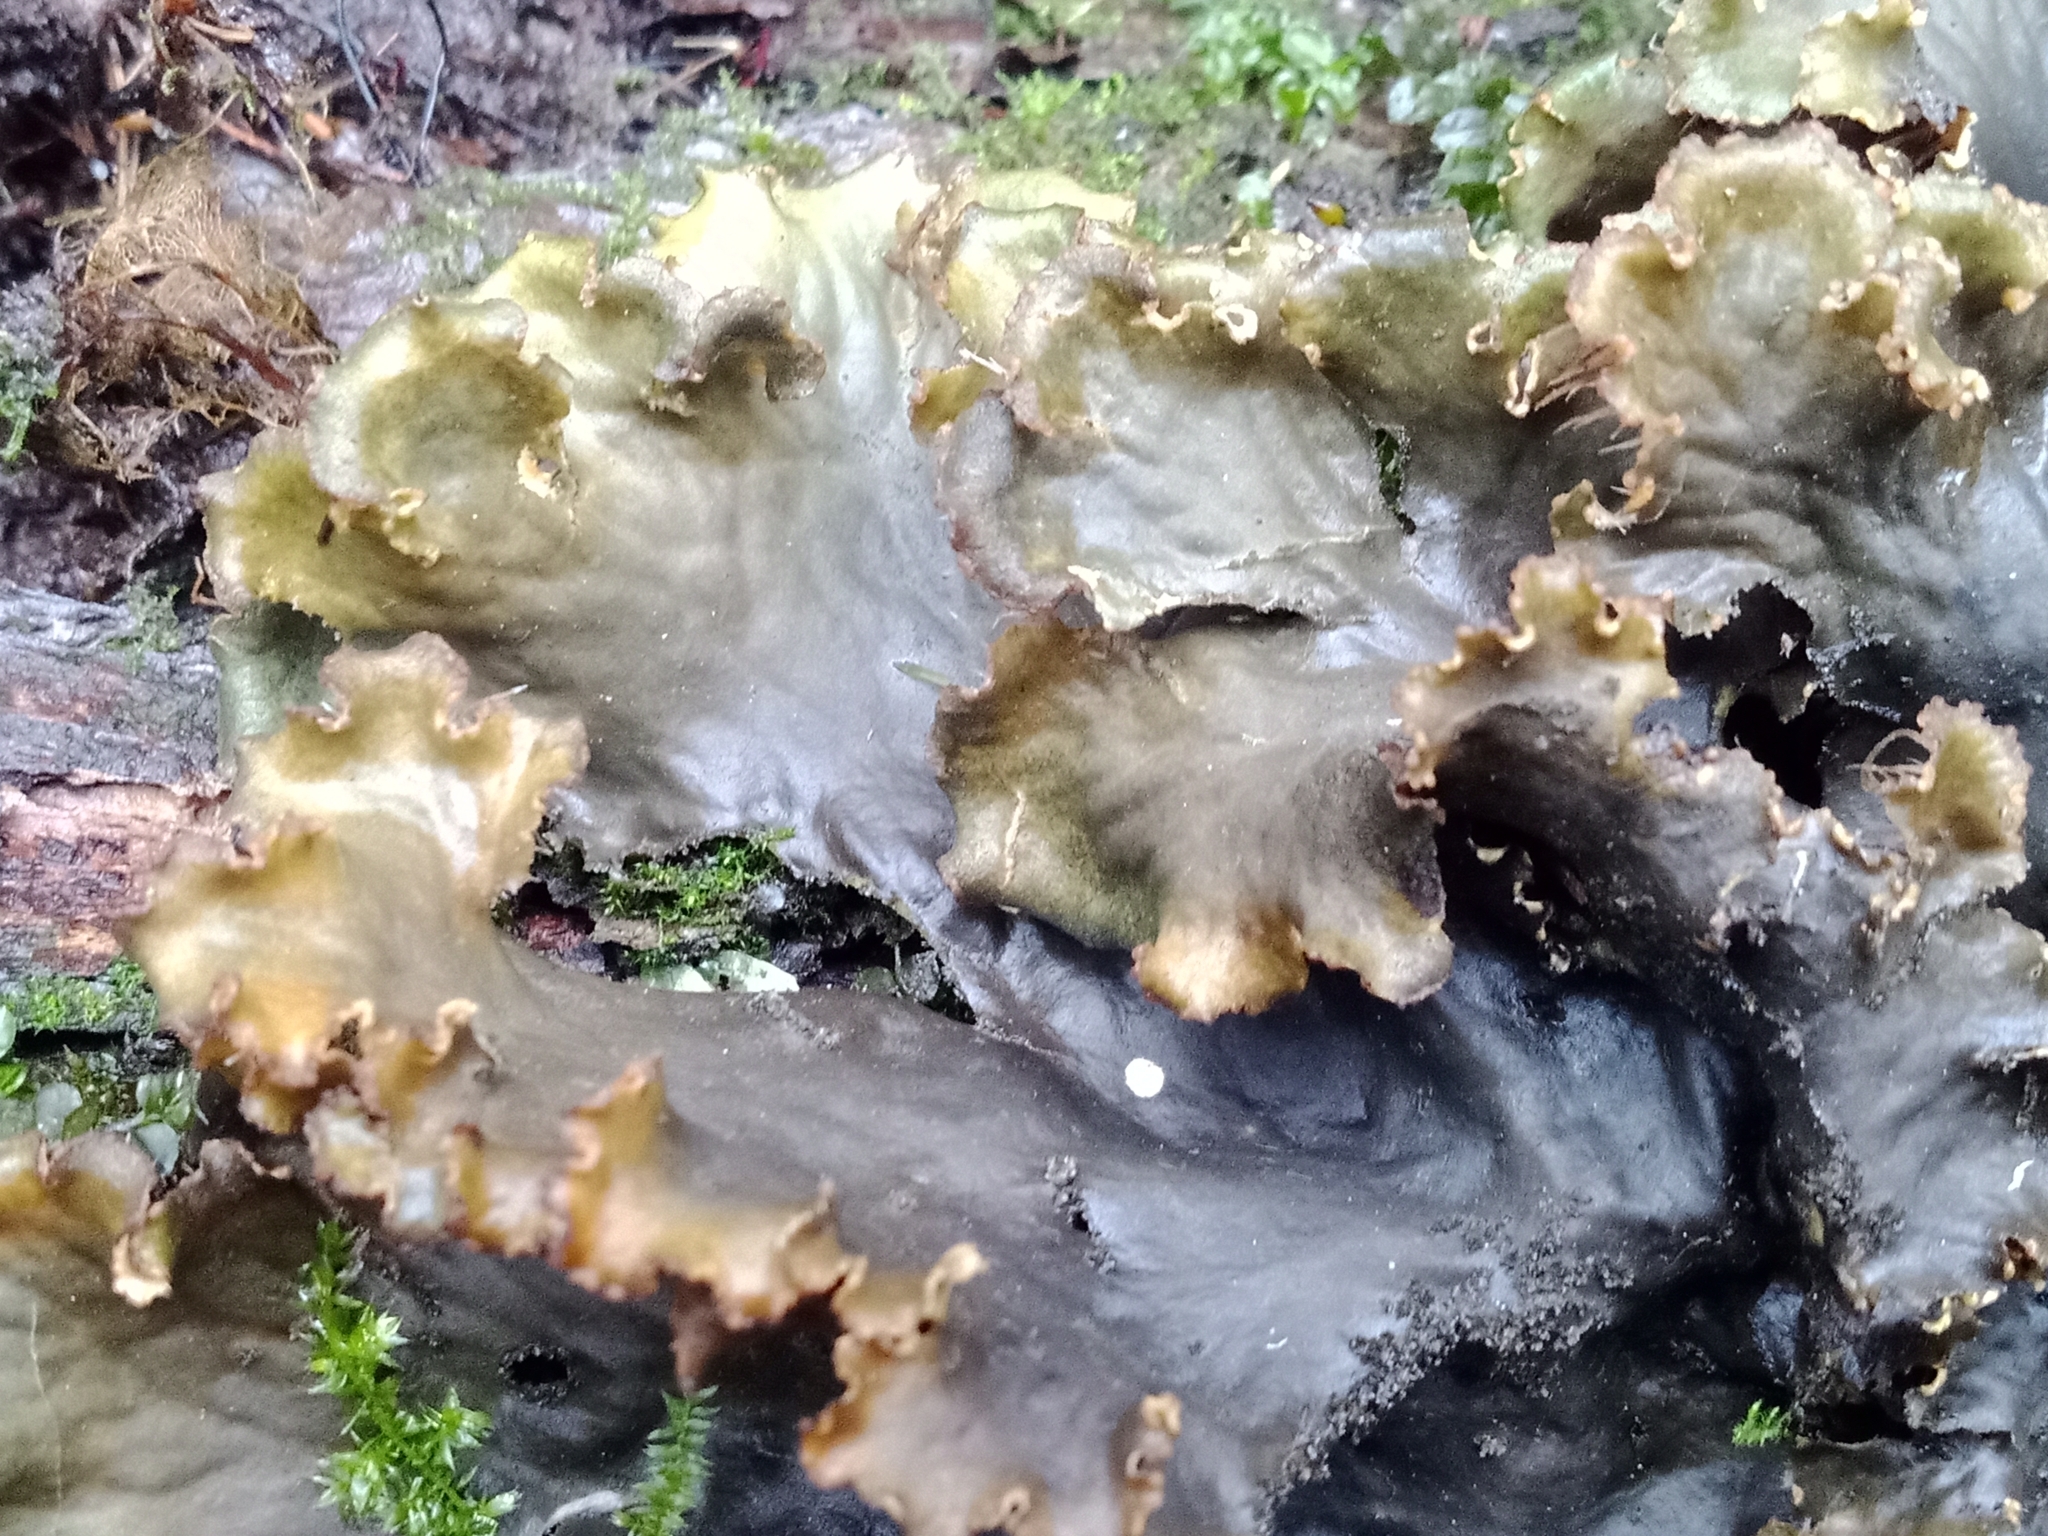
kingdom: Fungi
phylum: Ascomycota
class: Lecanoromycetes
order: Peltigerales
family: Peltigeraceae
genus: Peltigera
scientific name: Peltigera praetextata
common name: Scaly dog-lichen
